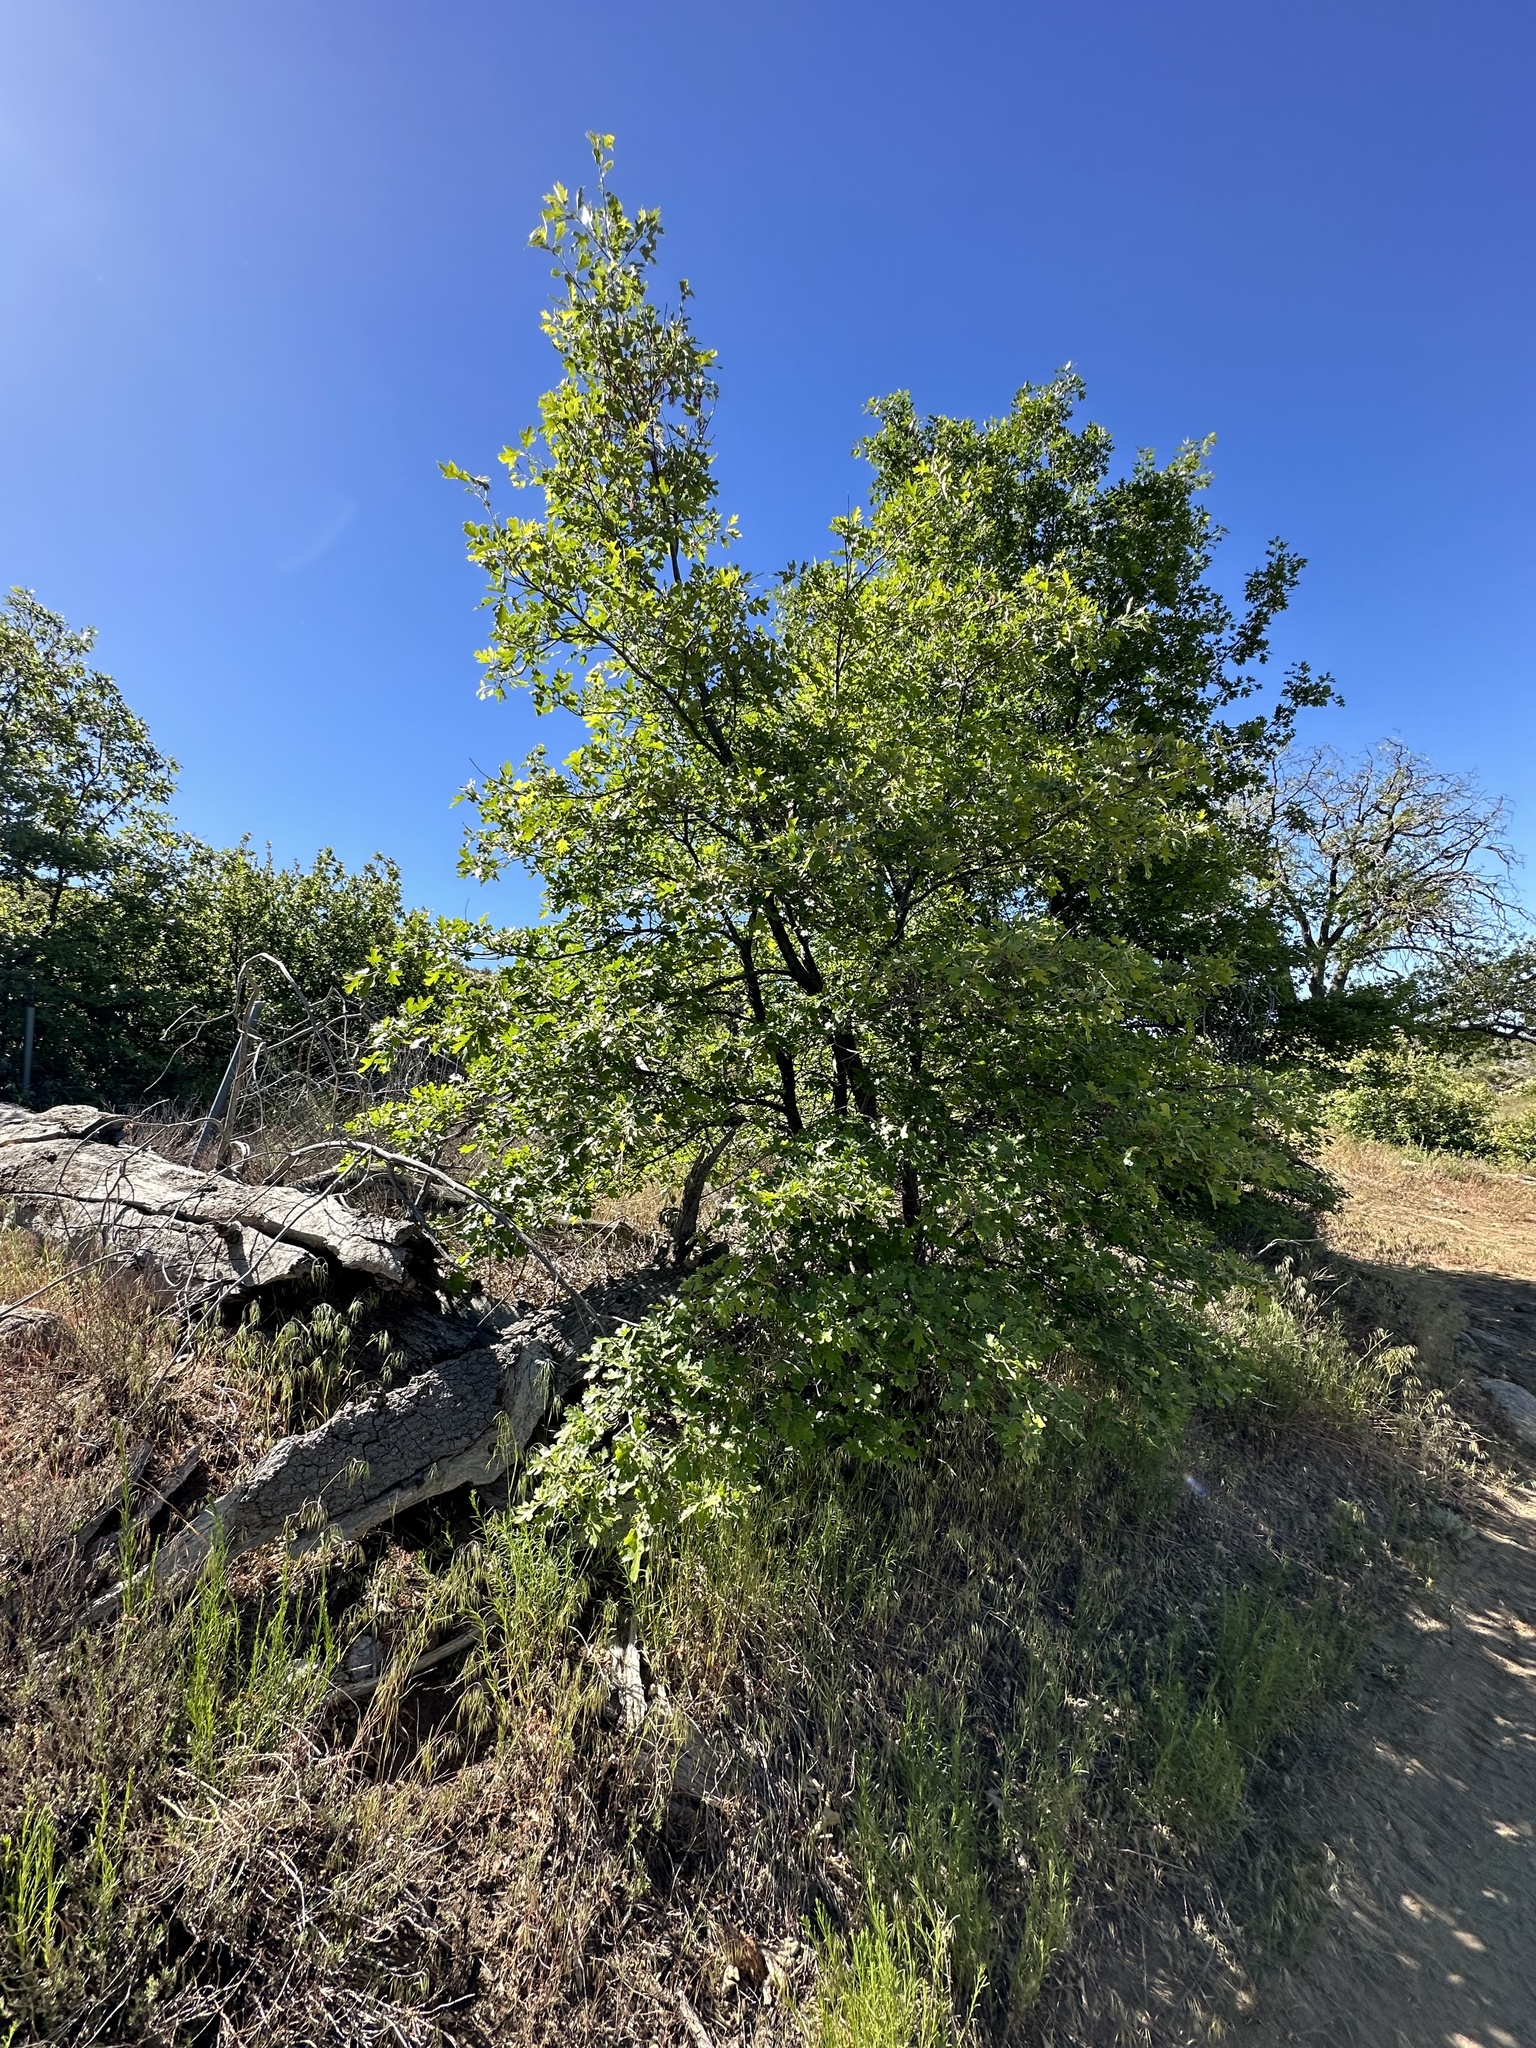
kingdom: Plantae
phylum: Tracheophyta
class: Magnoliopsida
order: Fagales
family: Fagaceae
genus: Quercus
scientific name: Quercus kelloggii
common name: California black oak
